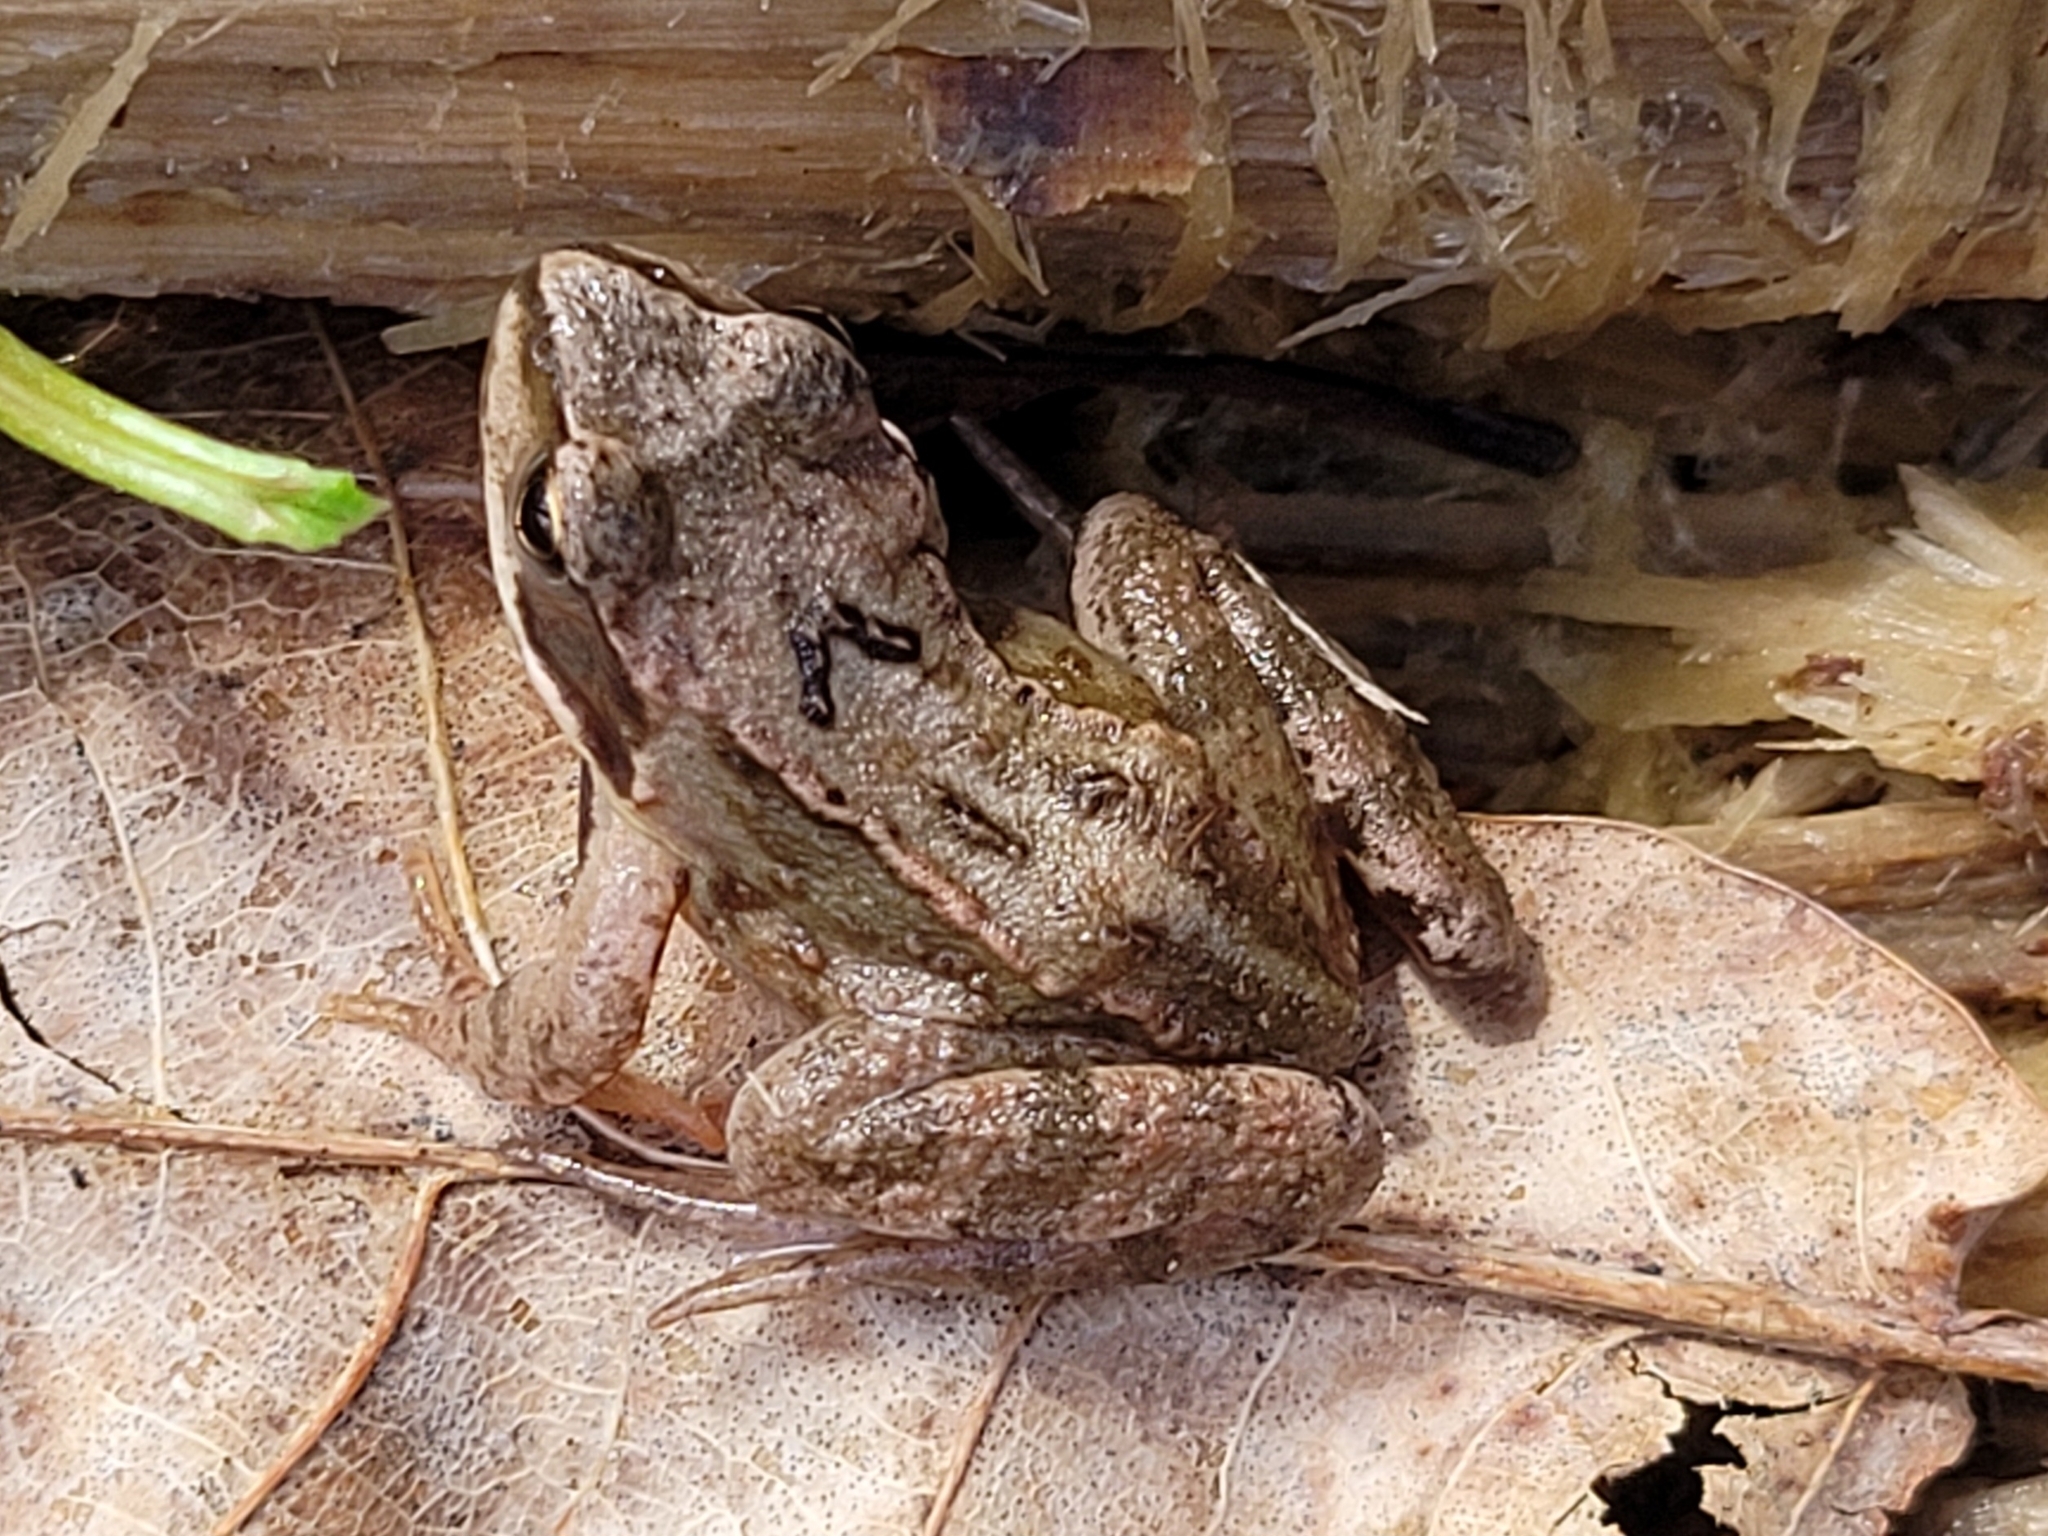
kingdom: Animalia
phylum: Chordata
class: Amphibia
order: Anura
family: Ranidae
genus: Rana
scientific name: Rana temporaria
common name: Common frog
